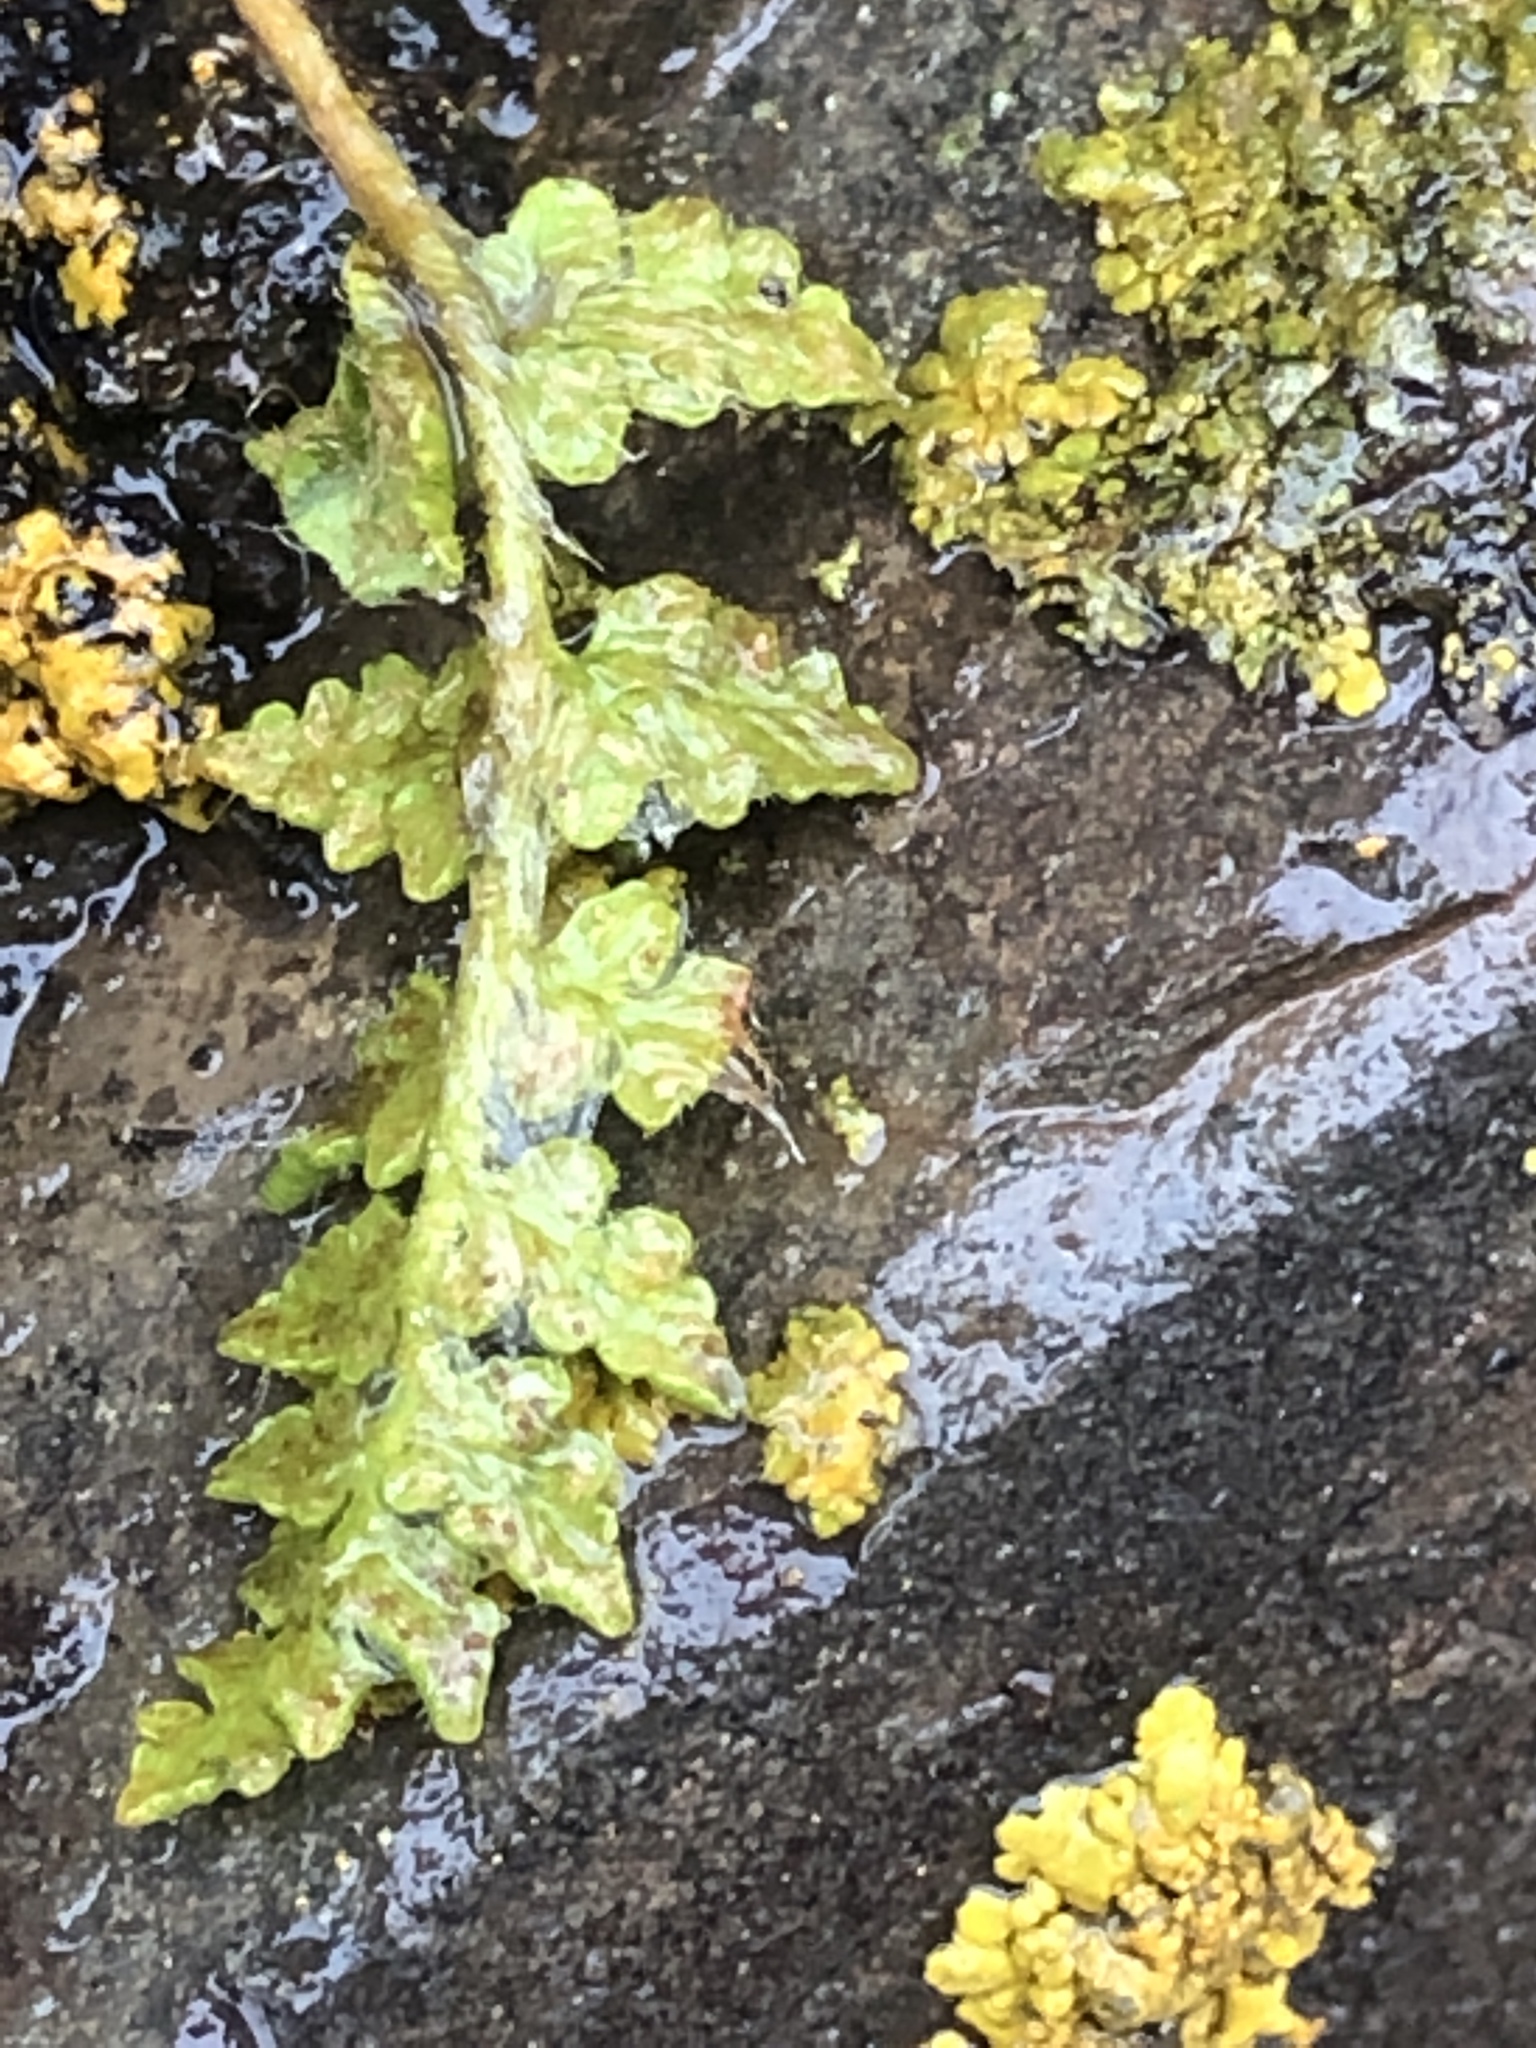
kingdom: Plantae
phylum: Tracheophyta
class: Polypodiopsida
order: Polypodiales
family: Woodsiaceae
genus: Woodsia
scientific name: Woodsia ilvensis
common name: Fragrant woodsia
